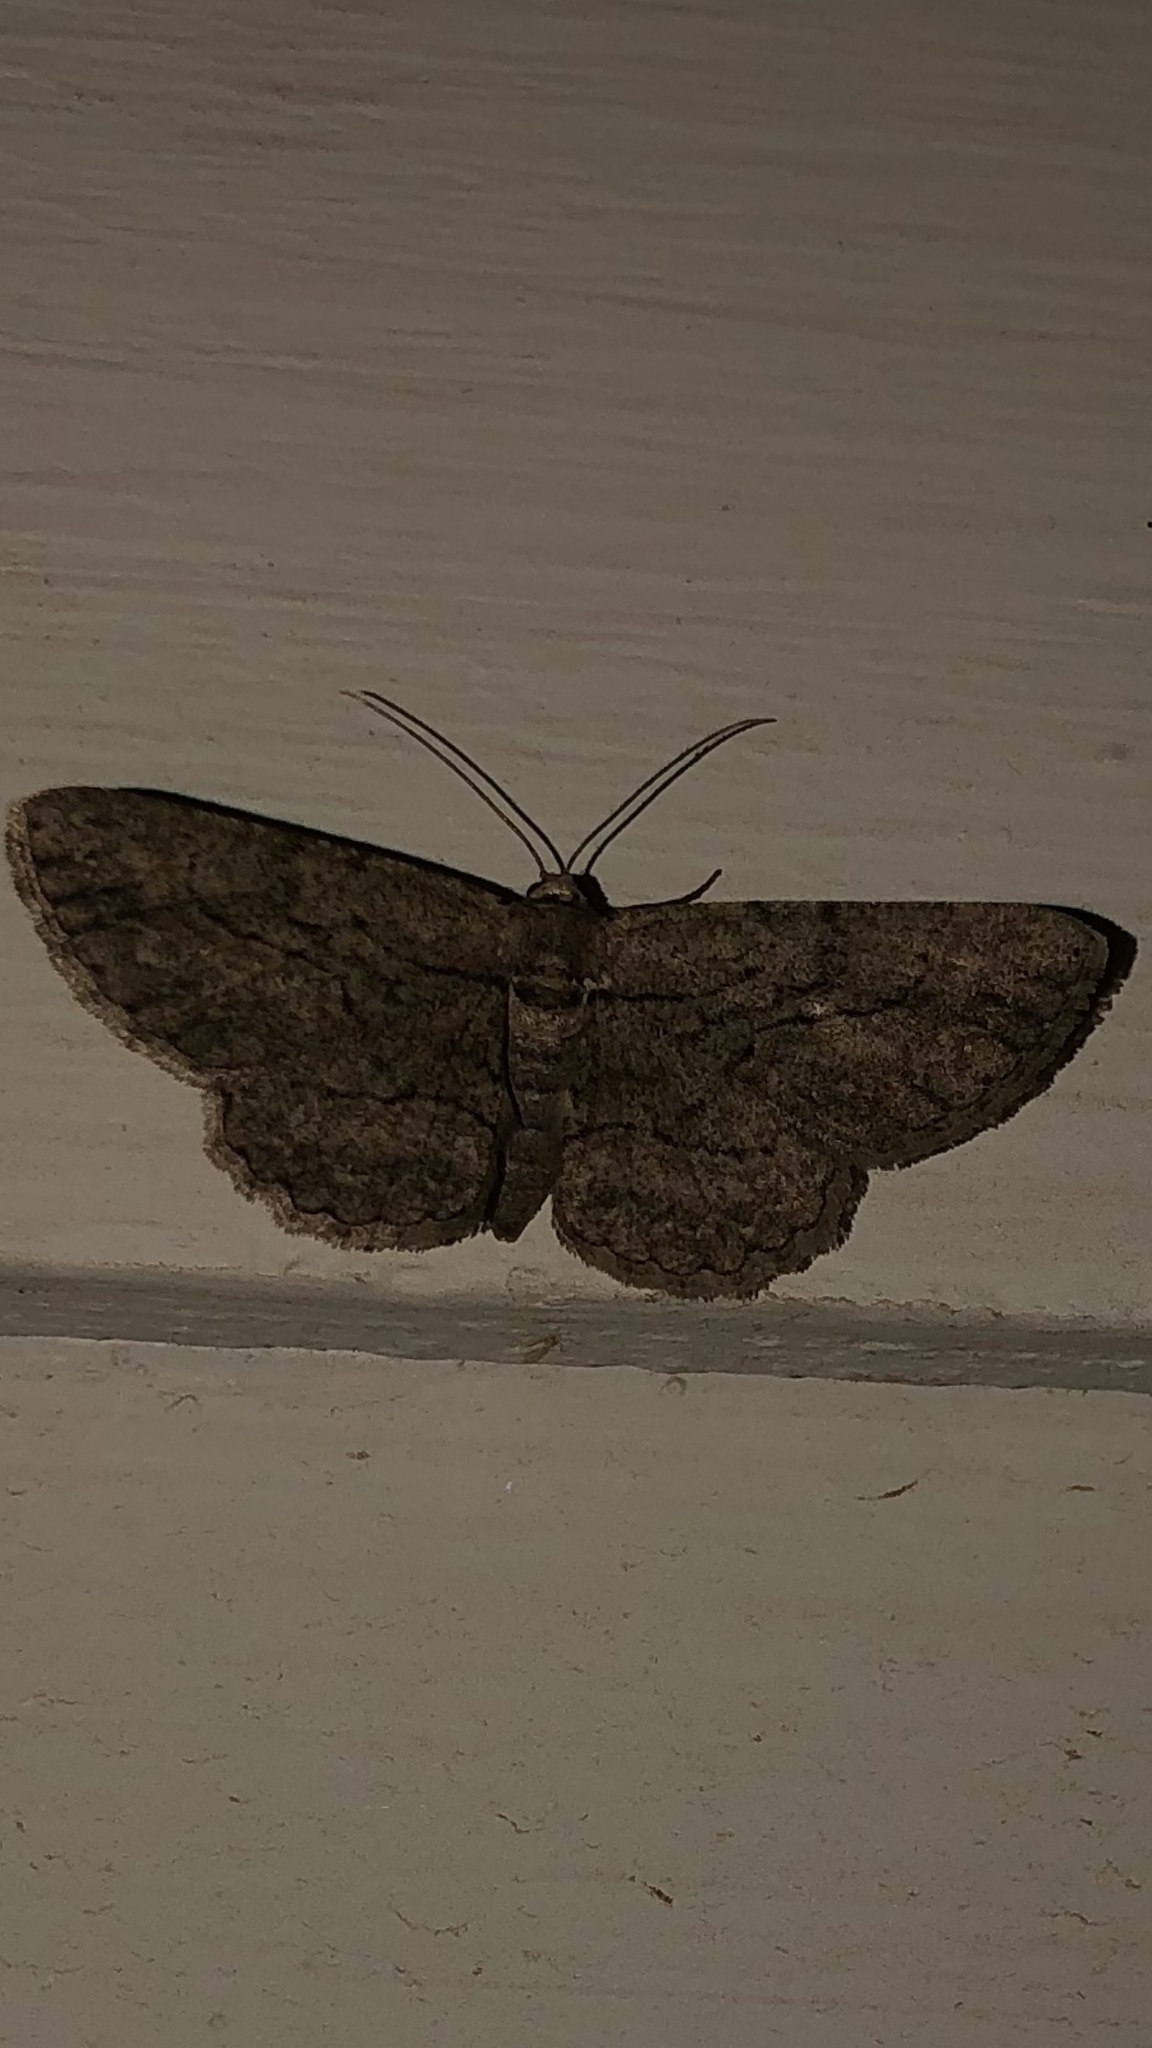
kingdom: Animalia
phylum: Arthropoda
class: Insecta
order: Lepidoptera
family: Geometridae
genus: Anavitrinella
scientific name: Anavitrinella pampinaria
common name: Common gray
